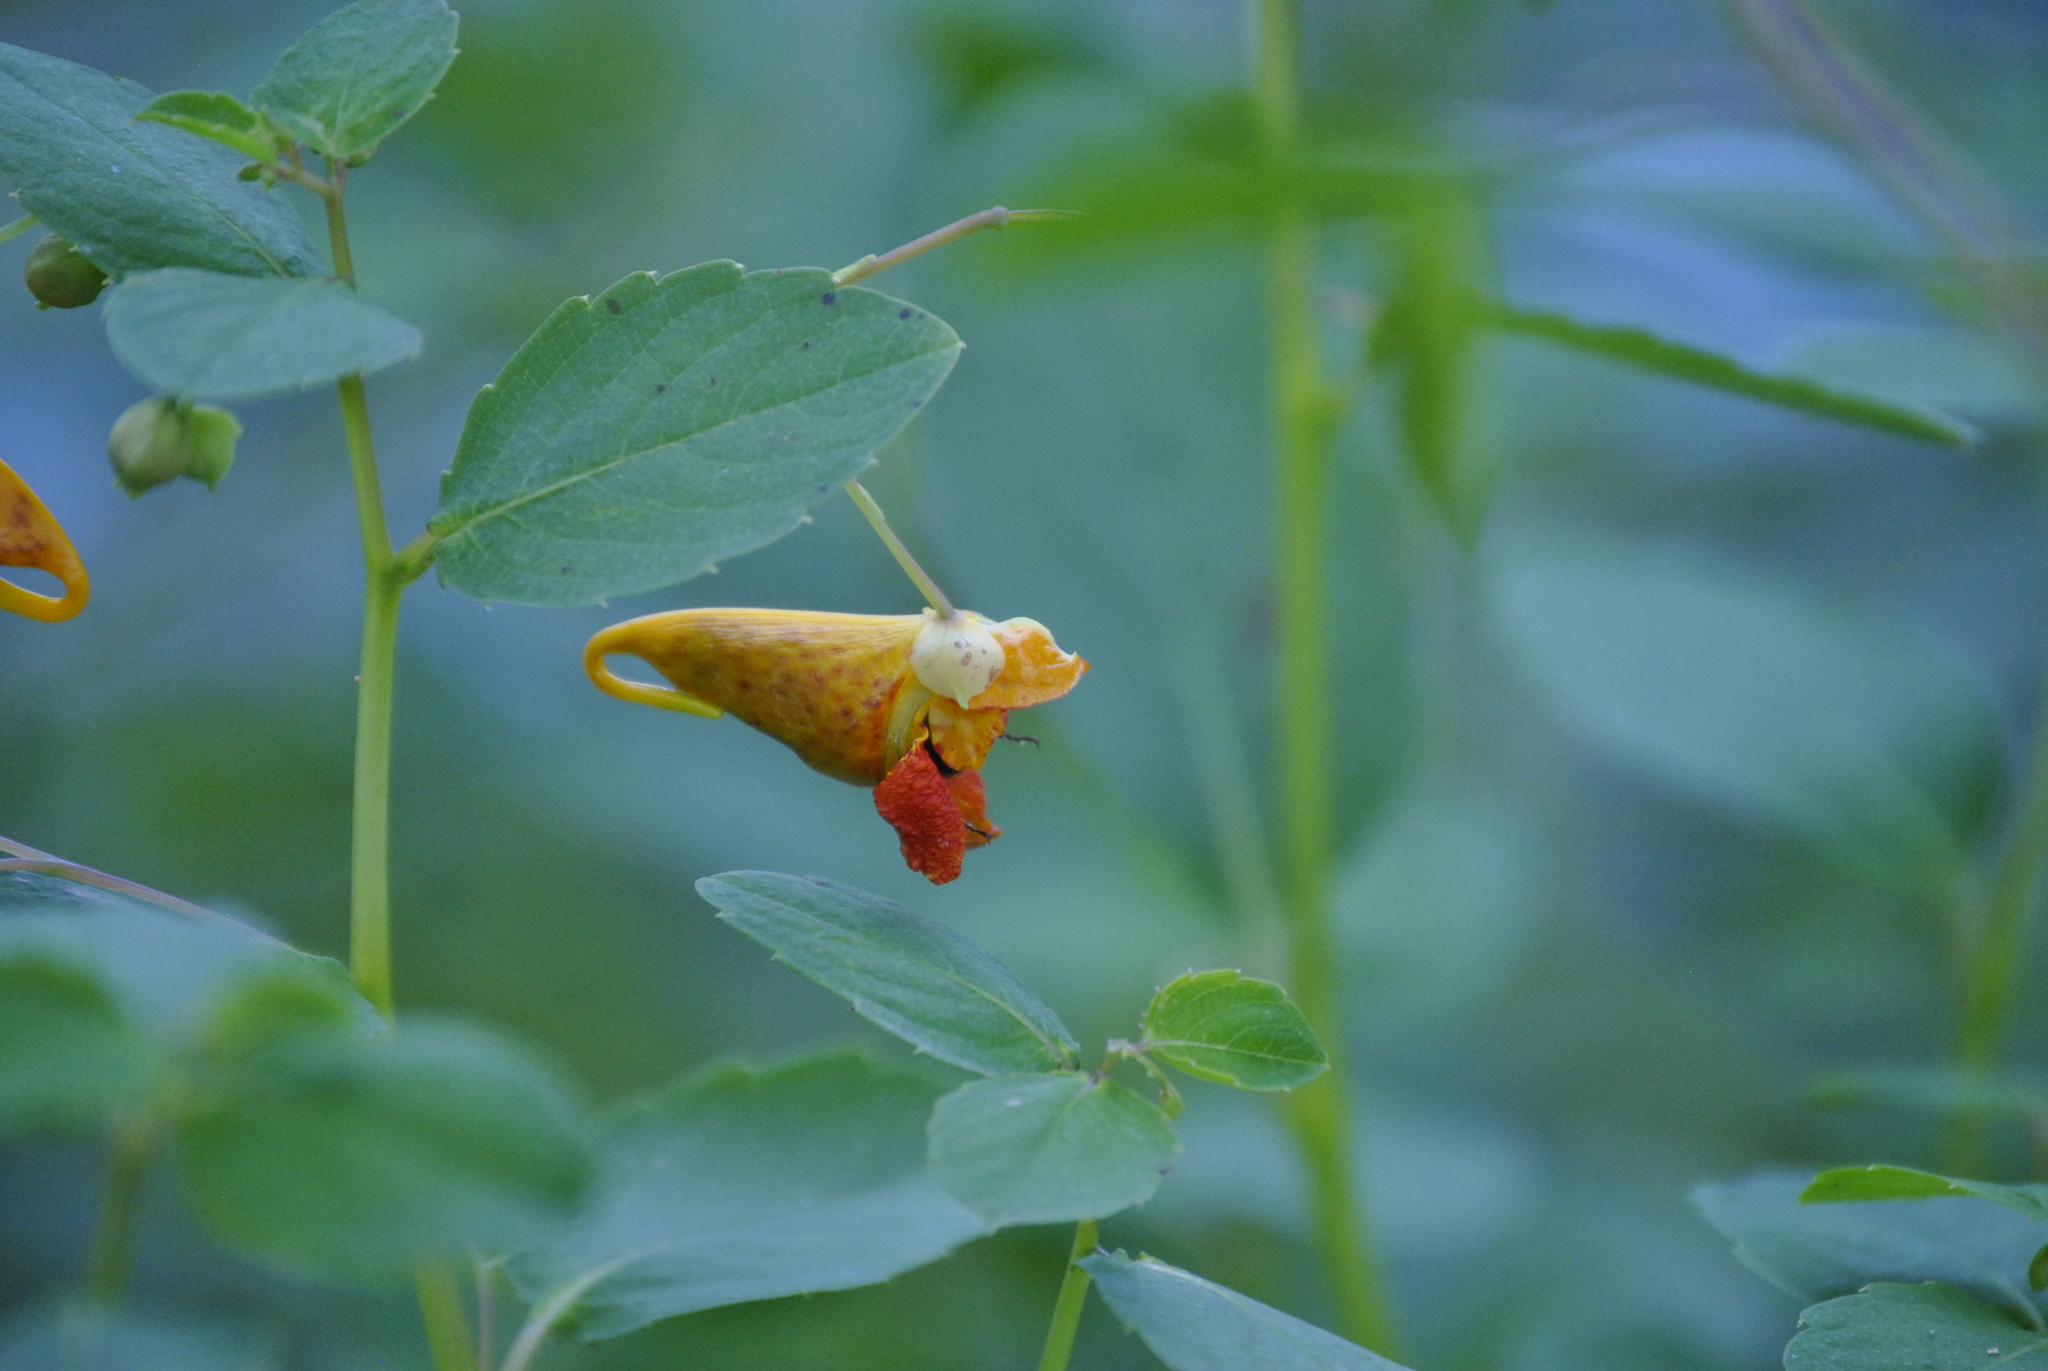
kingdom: Plantae
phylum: Tracheophyta
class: Magnoliopsida
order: Ericales
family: Balsaminaceae
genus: Impatiens
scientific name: Impatiens capensis
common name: Orange balsam
